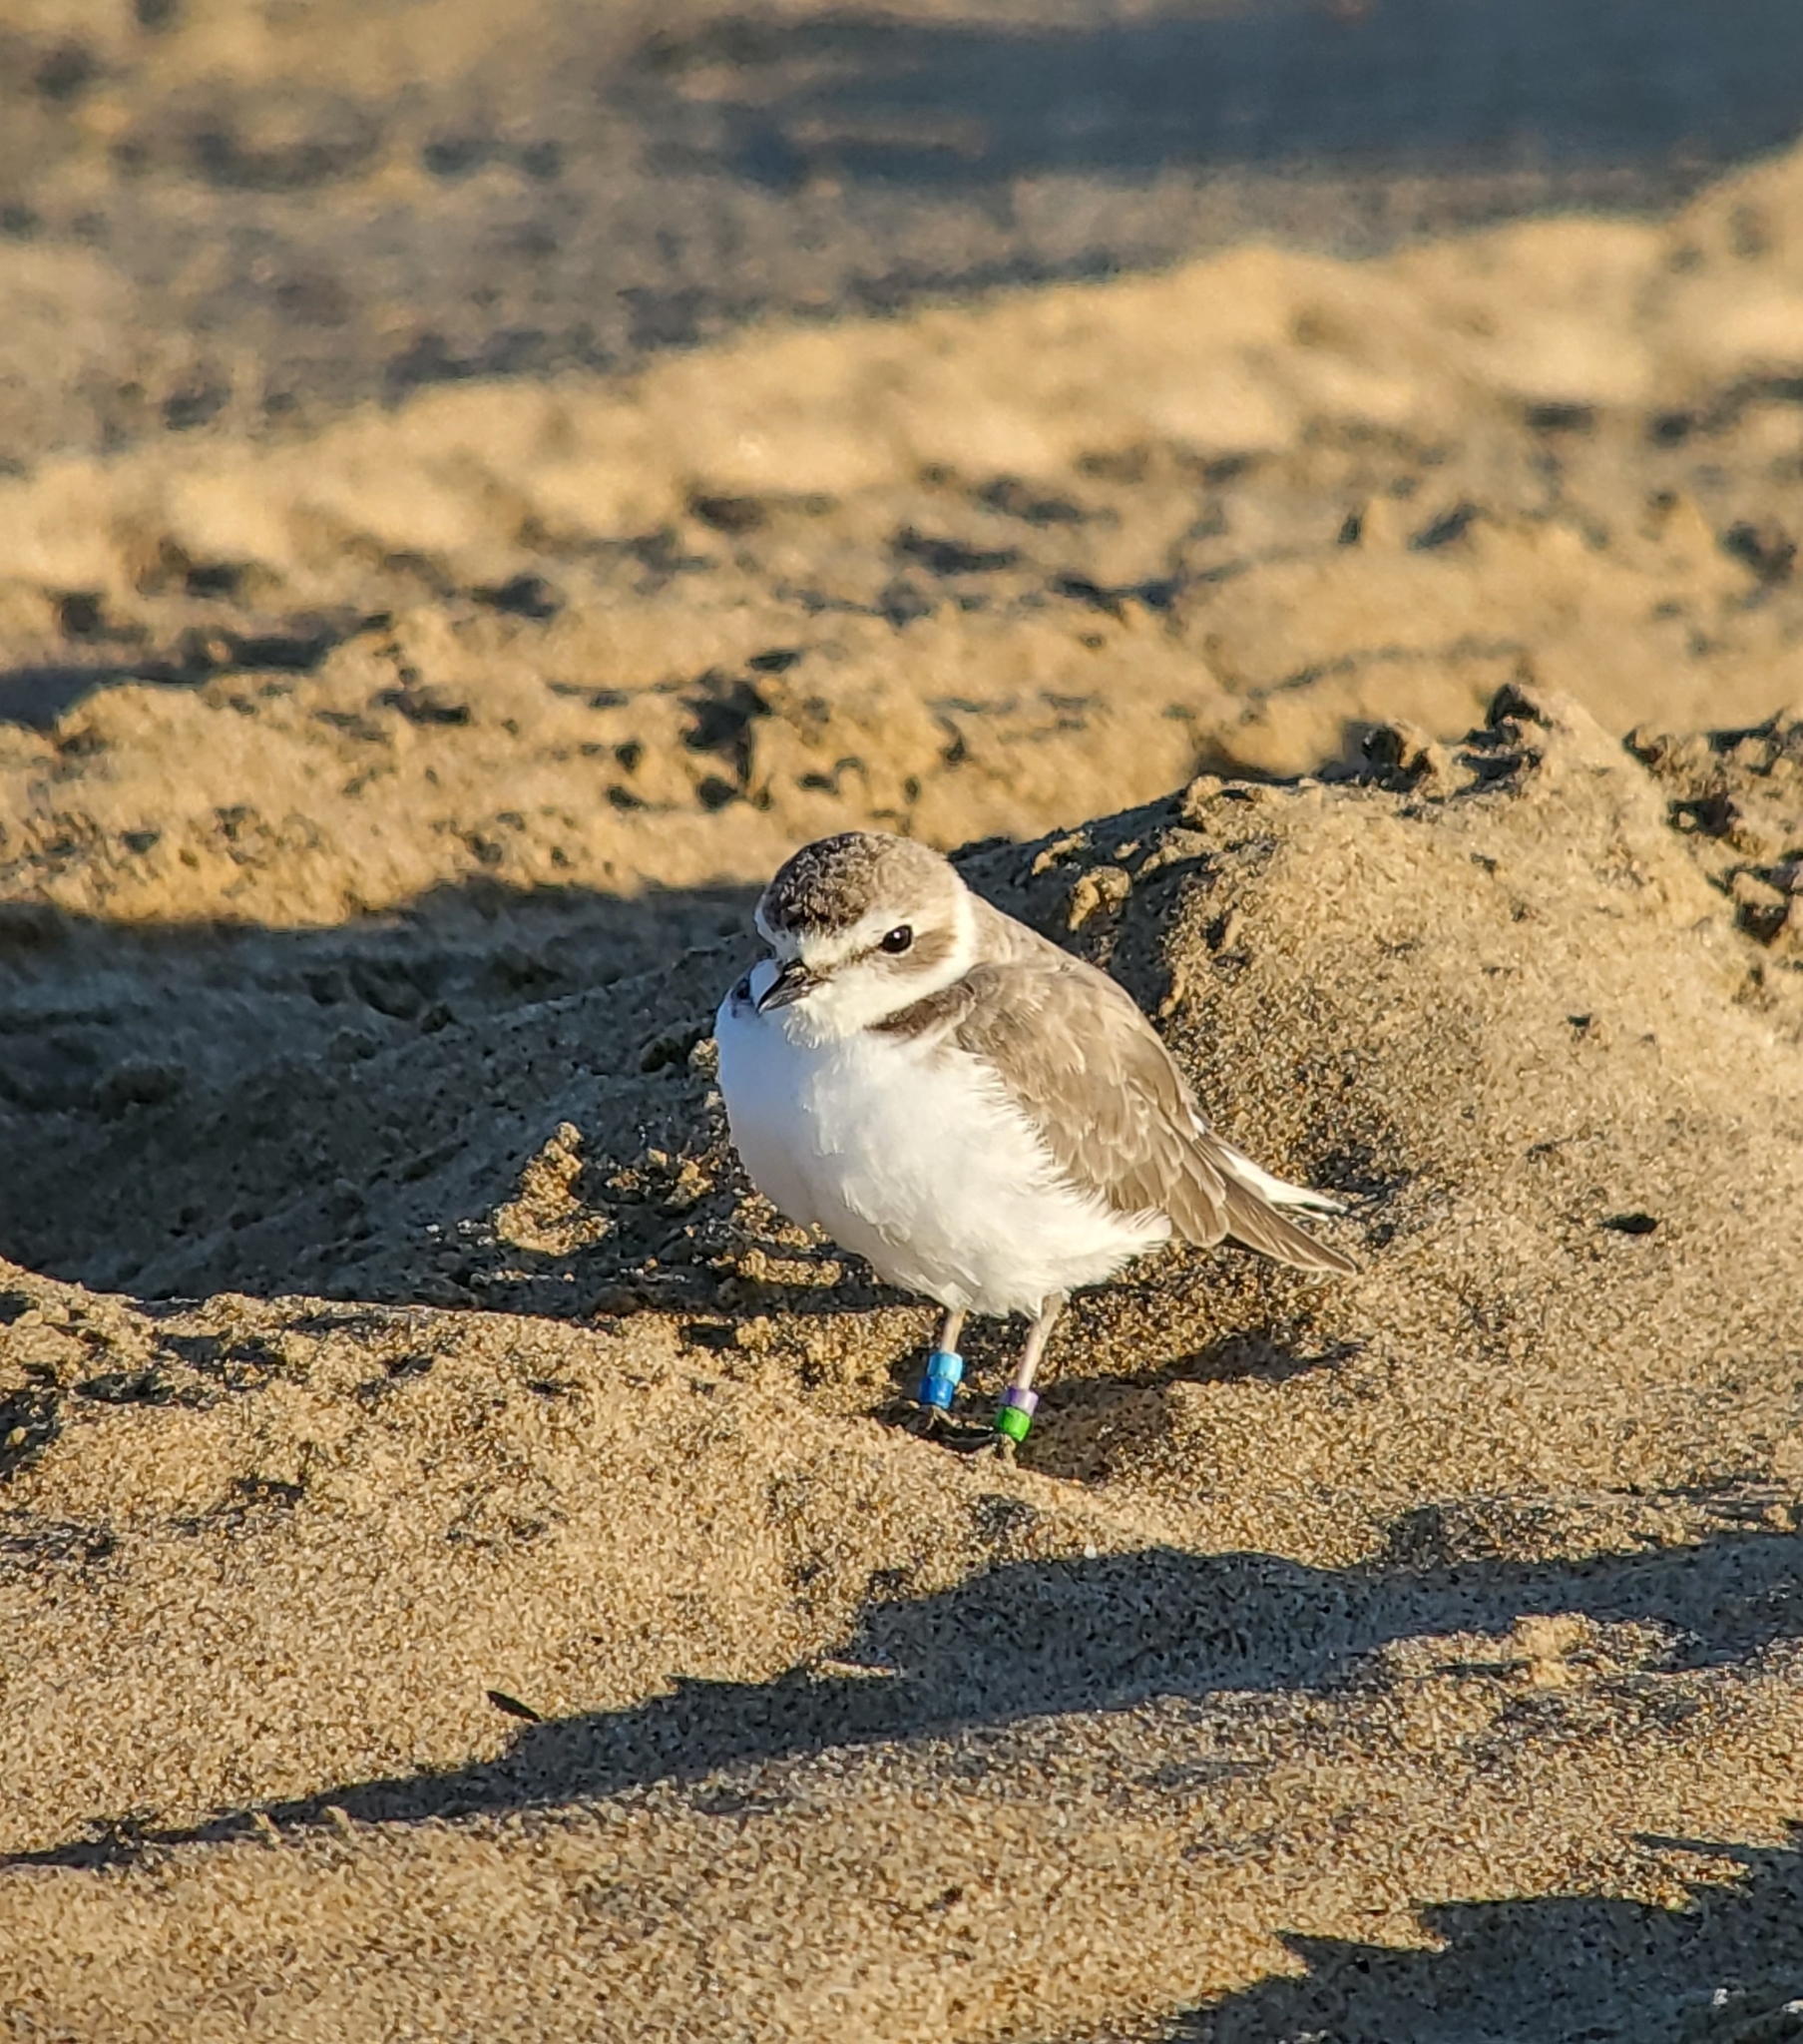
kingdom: Animalia
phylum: Chordata
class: Aves
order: Charadriiformes
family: Charadriidae
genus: Anarhynchus
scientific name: Anarhynchus
